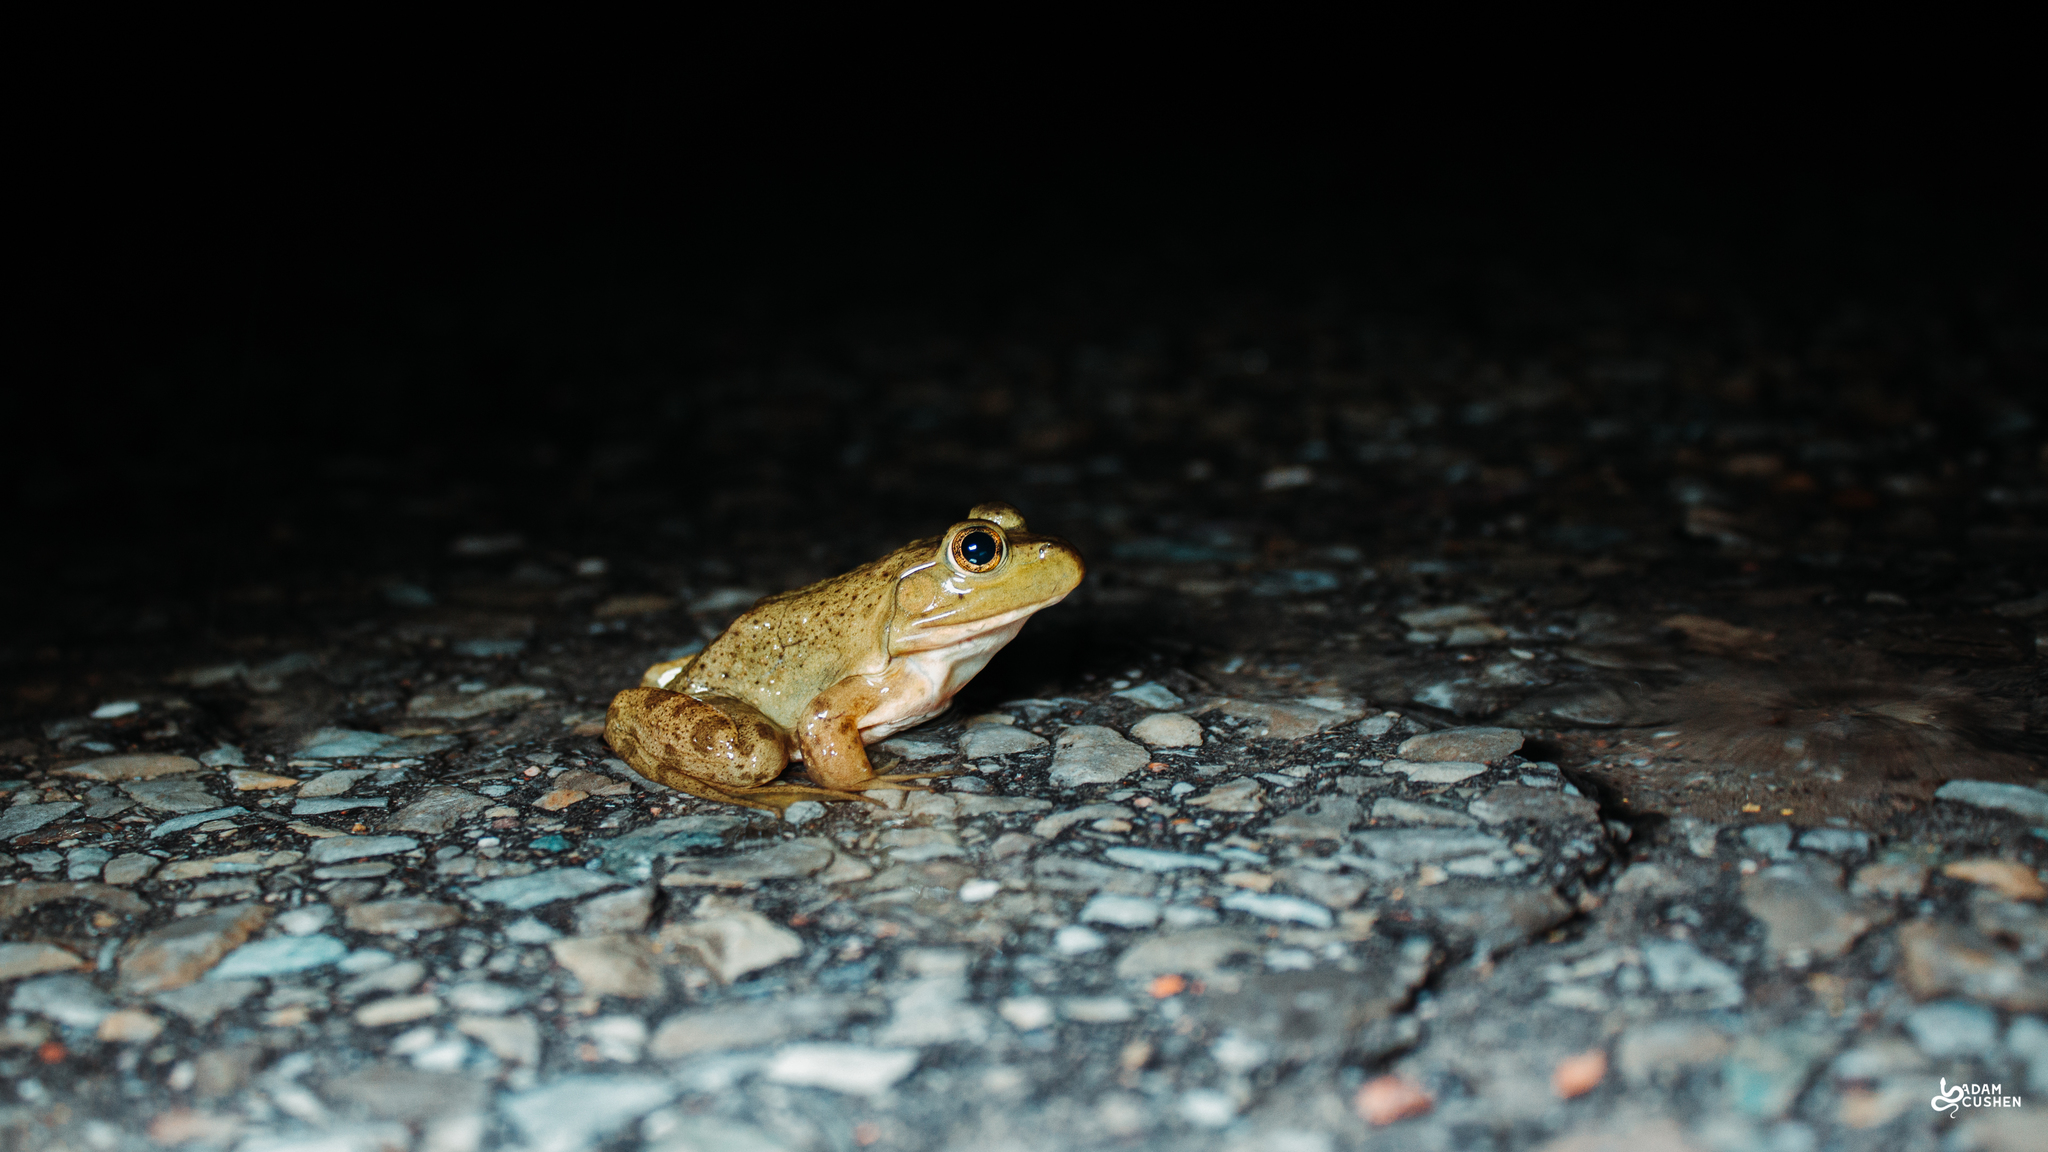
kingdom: Animalia
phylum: Chordata
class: Amphibia
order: Anura
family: Ranidae
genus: Lithobates
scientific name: Lithobates catesbeianus
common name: American bullfrog
